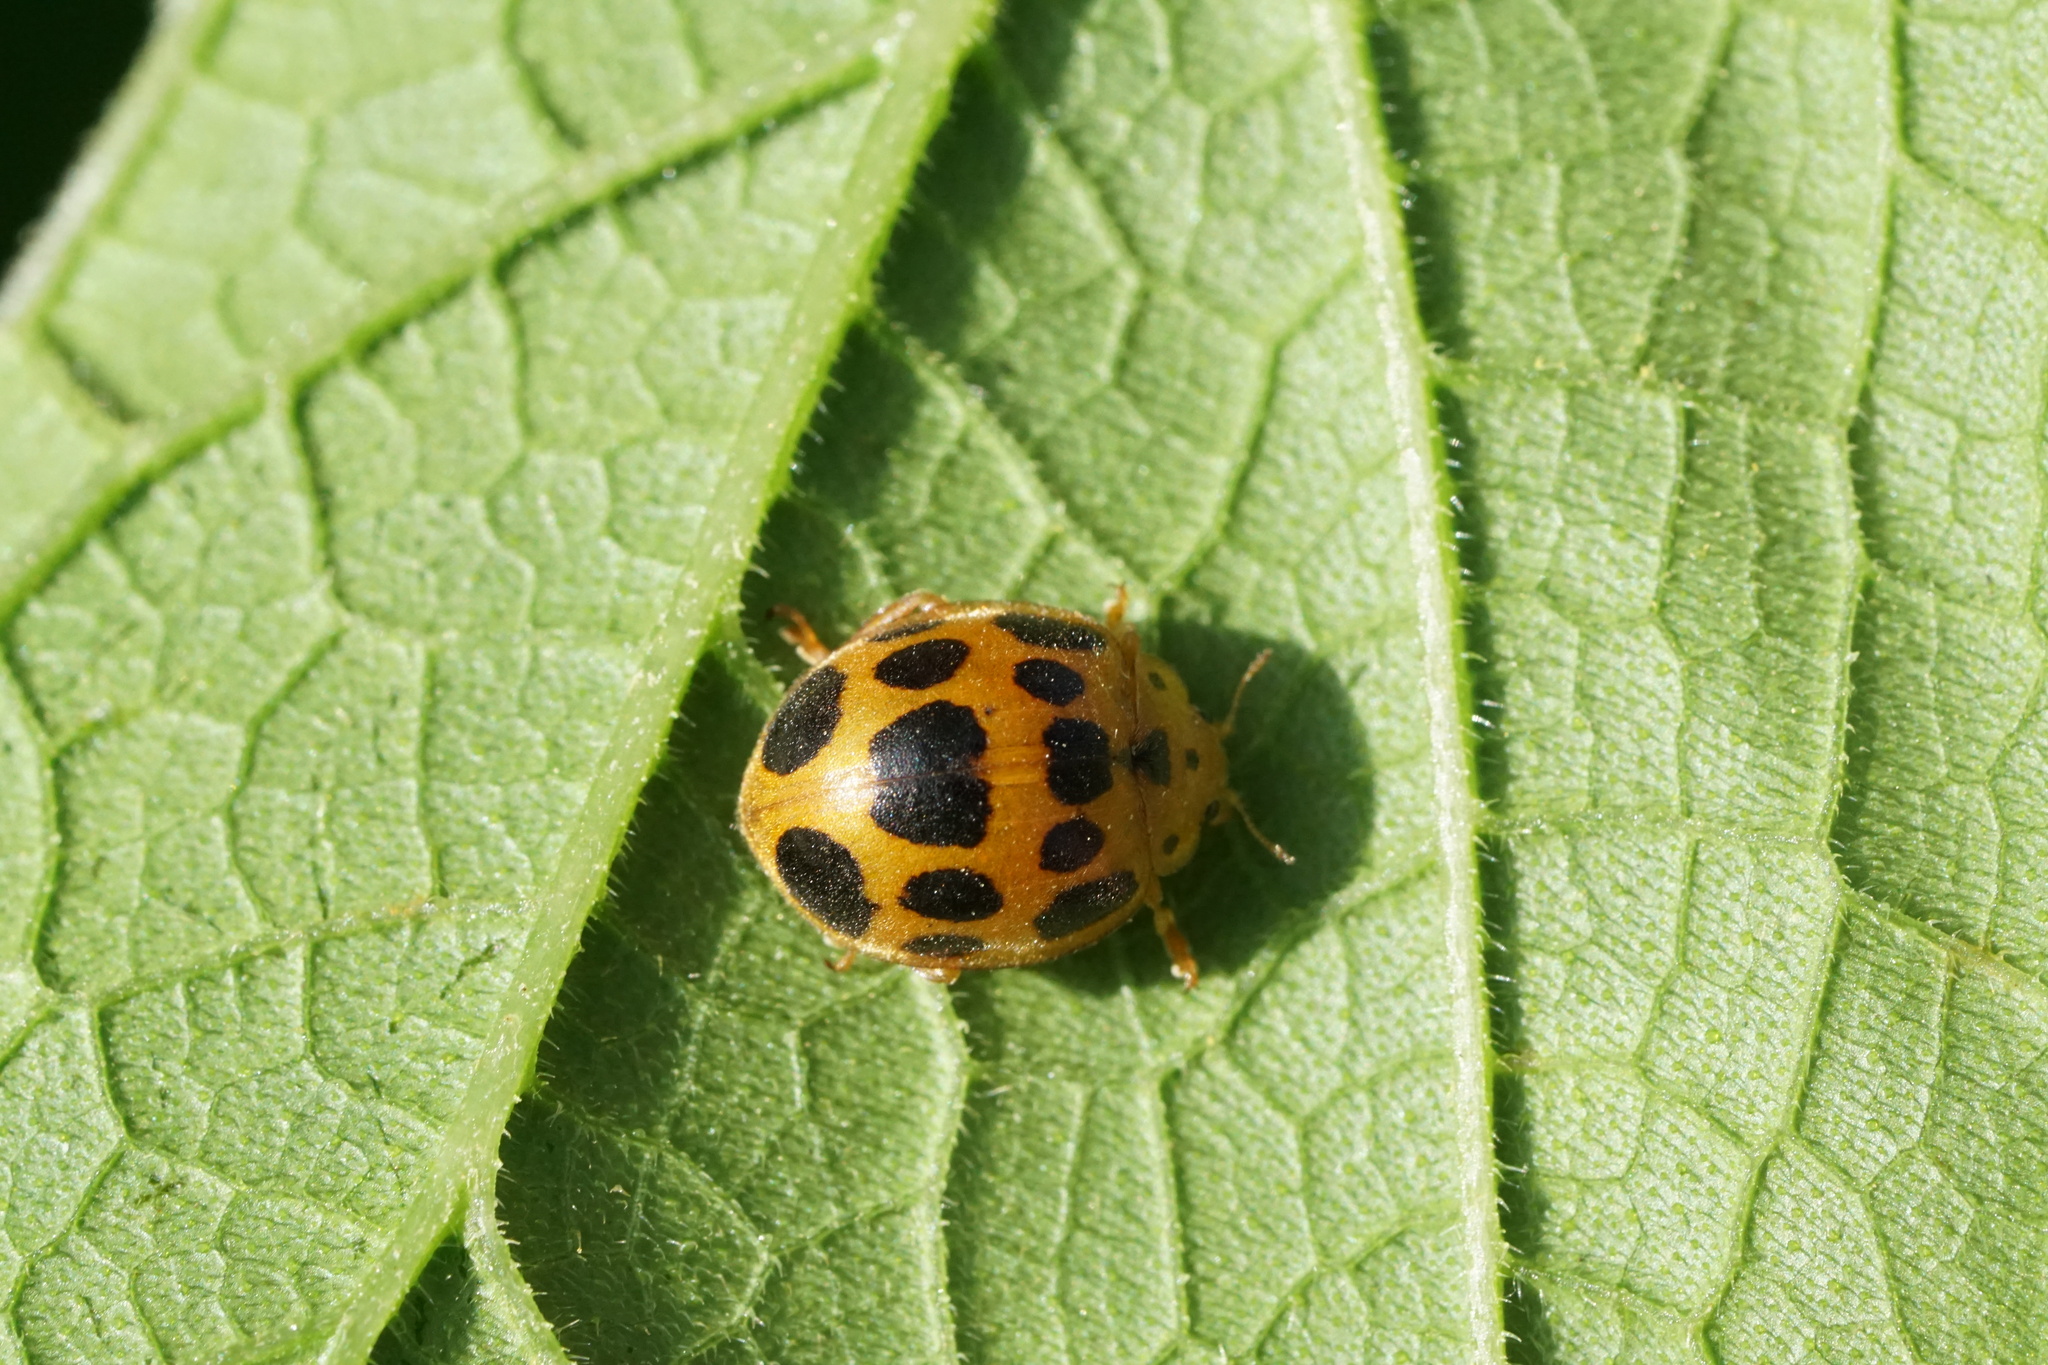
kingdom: Animalia
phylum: Arthropoda
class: Insecta
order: Coleoptera
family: Coccinellidae
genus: Epilachna
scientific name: Epilachna borealis
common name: Squash beetle
